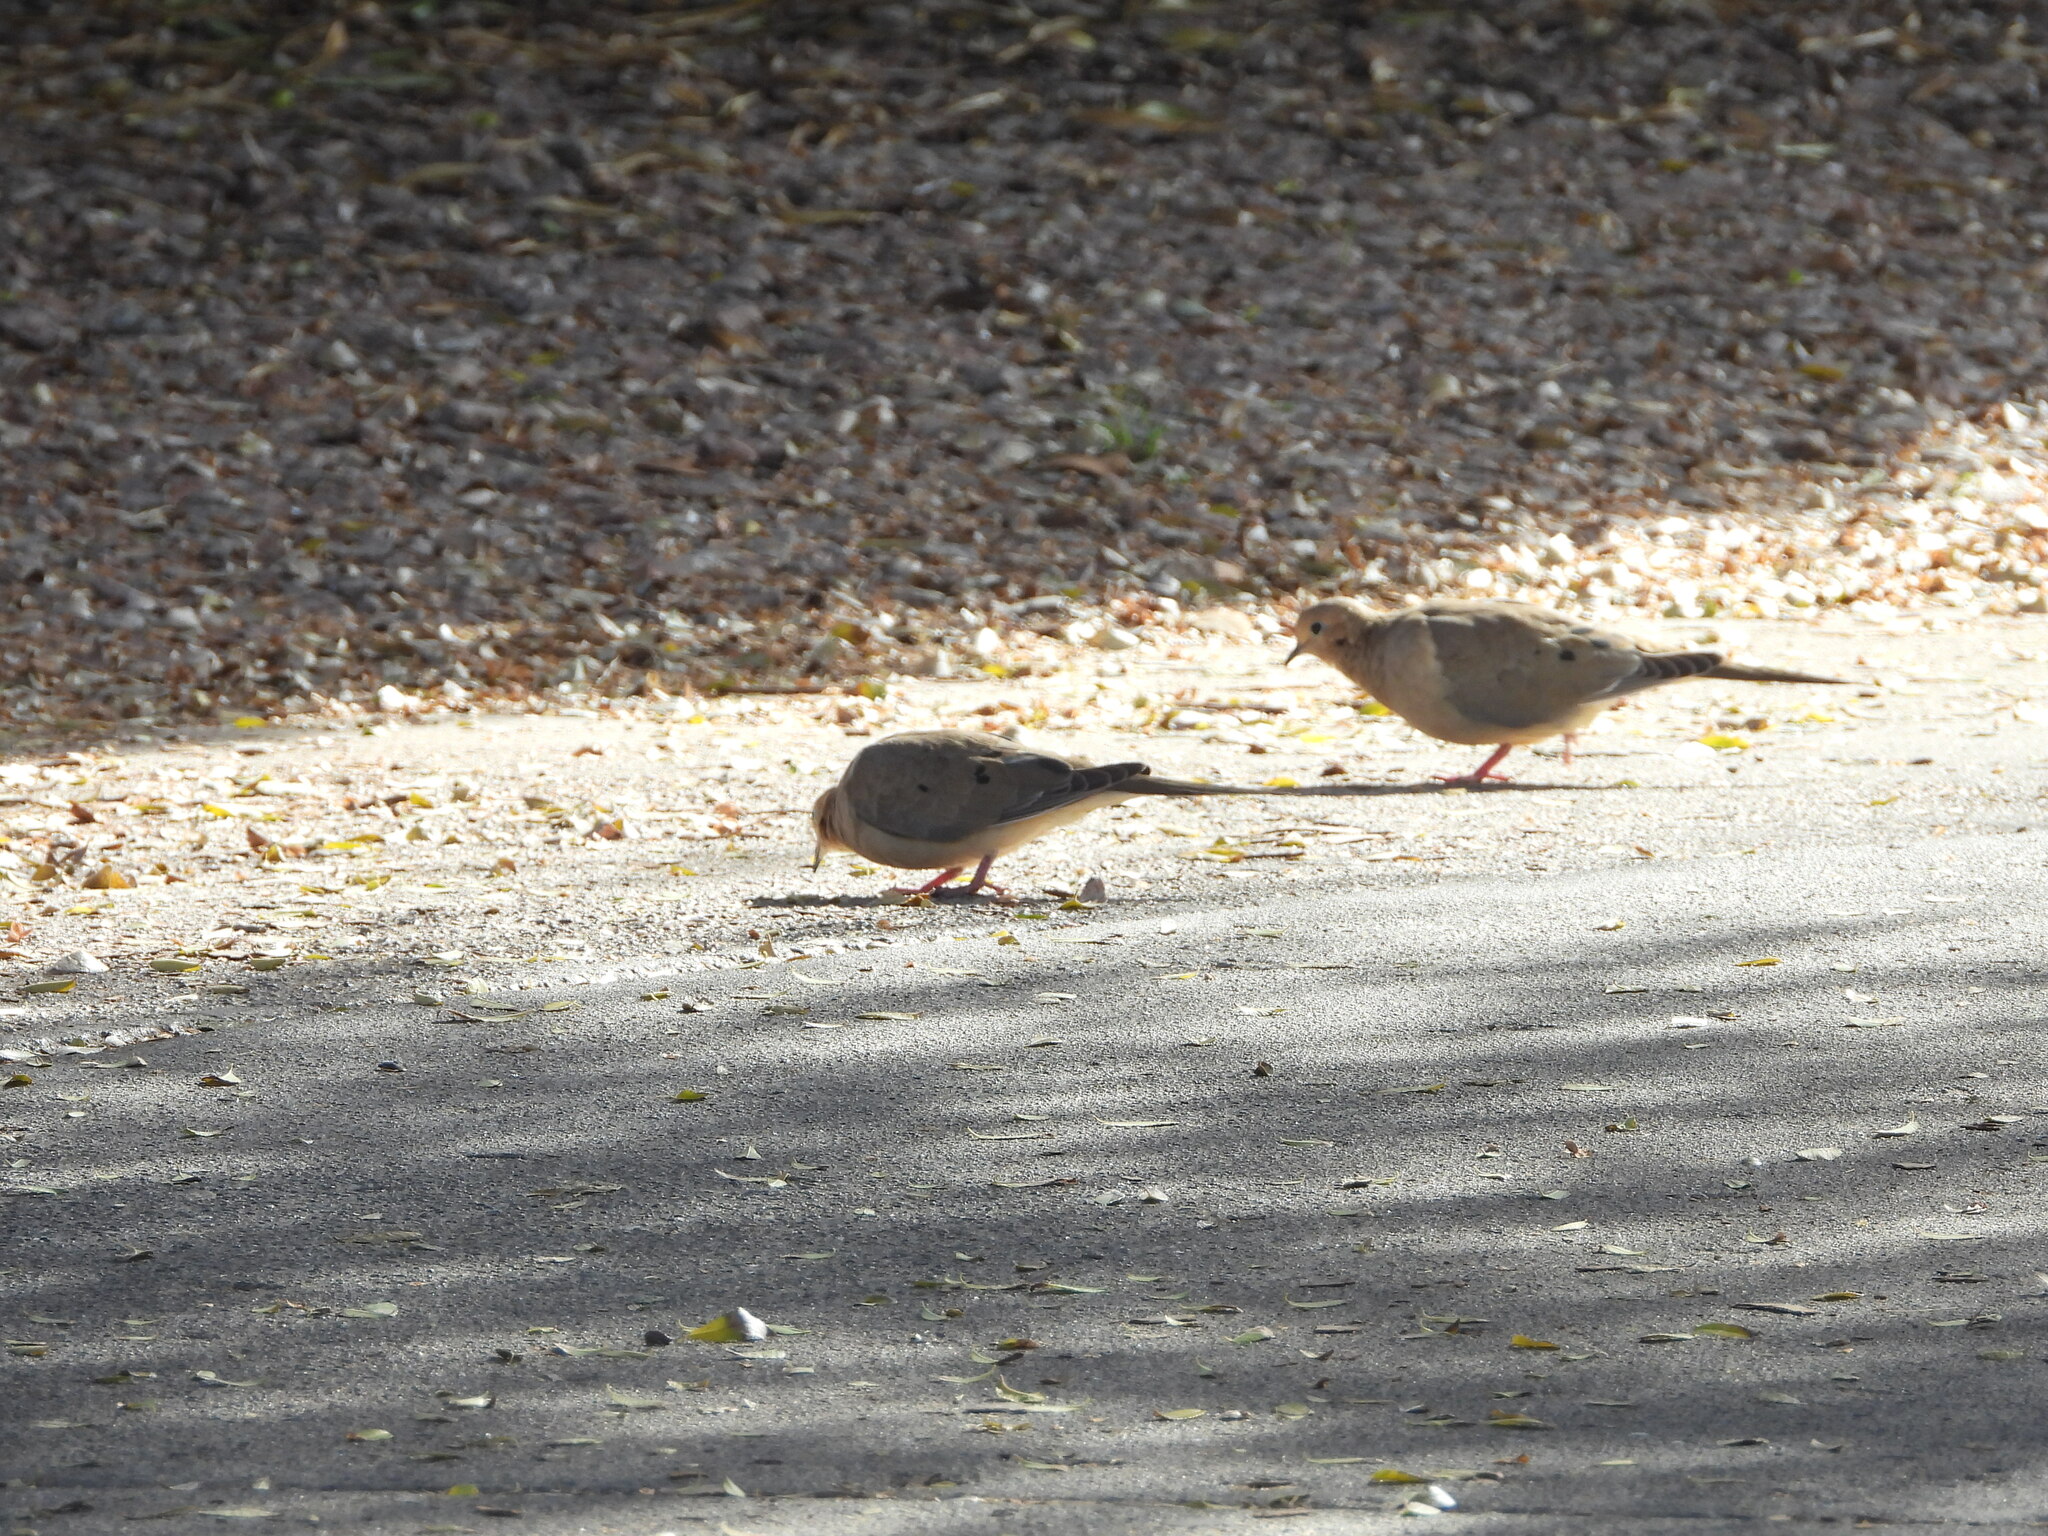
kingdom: Animalia
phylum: Chordata
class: Aves
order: Columbiformes
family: Columbidae
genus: Zenaida
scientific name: Zenaida macroura
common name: Mourning dove
